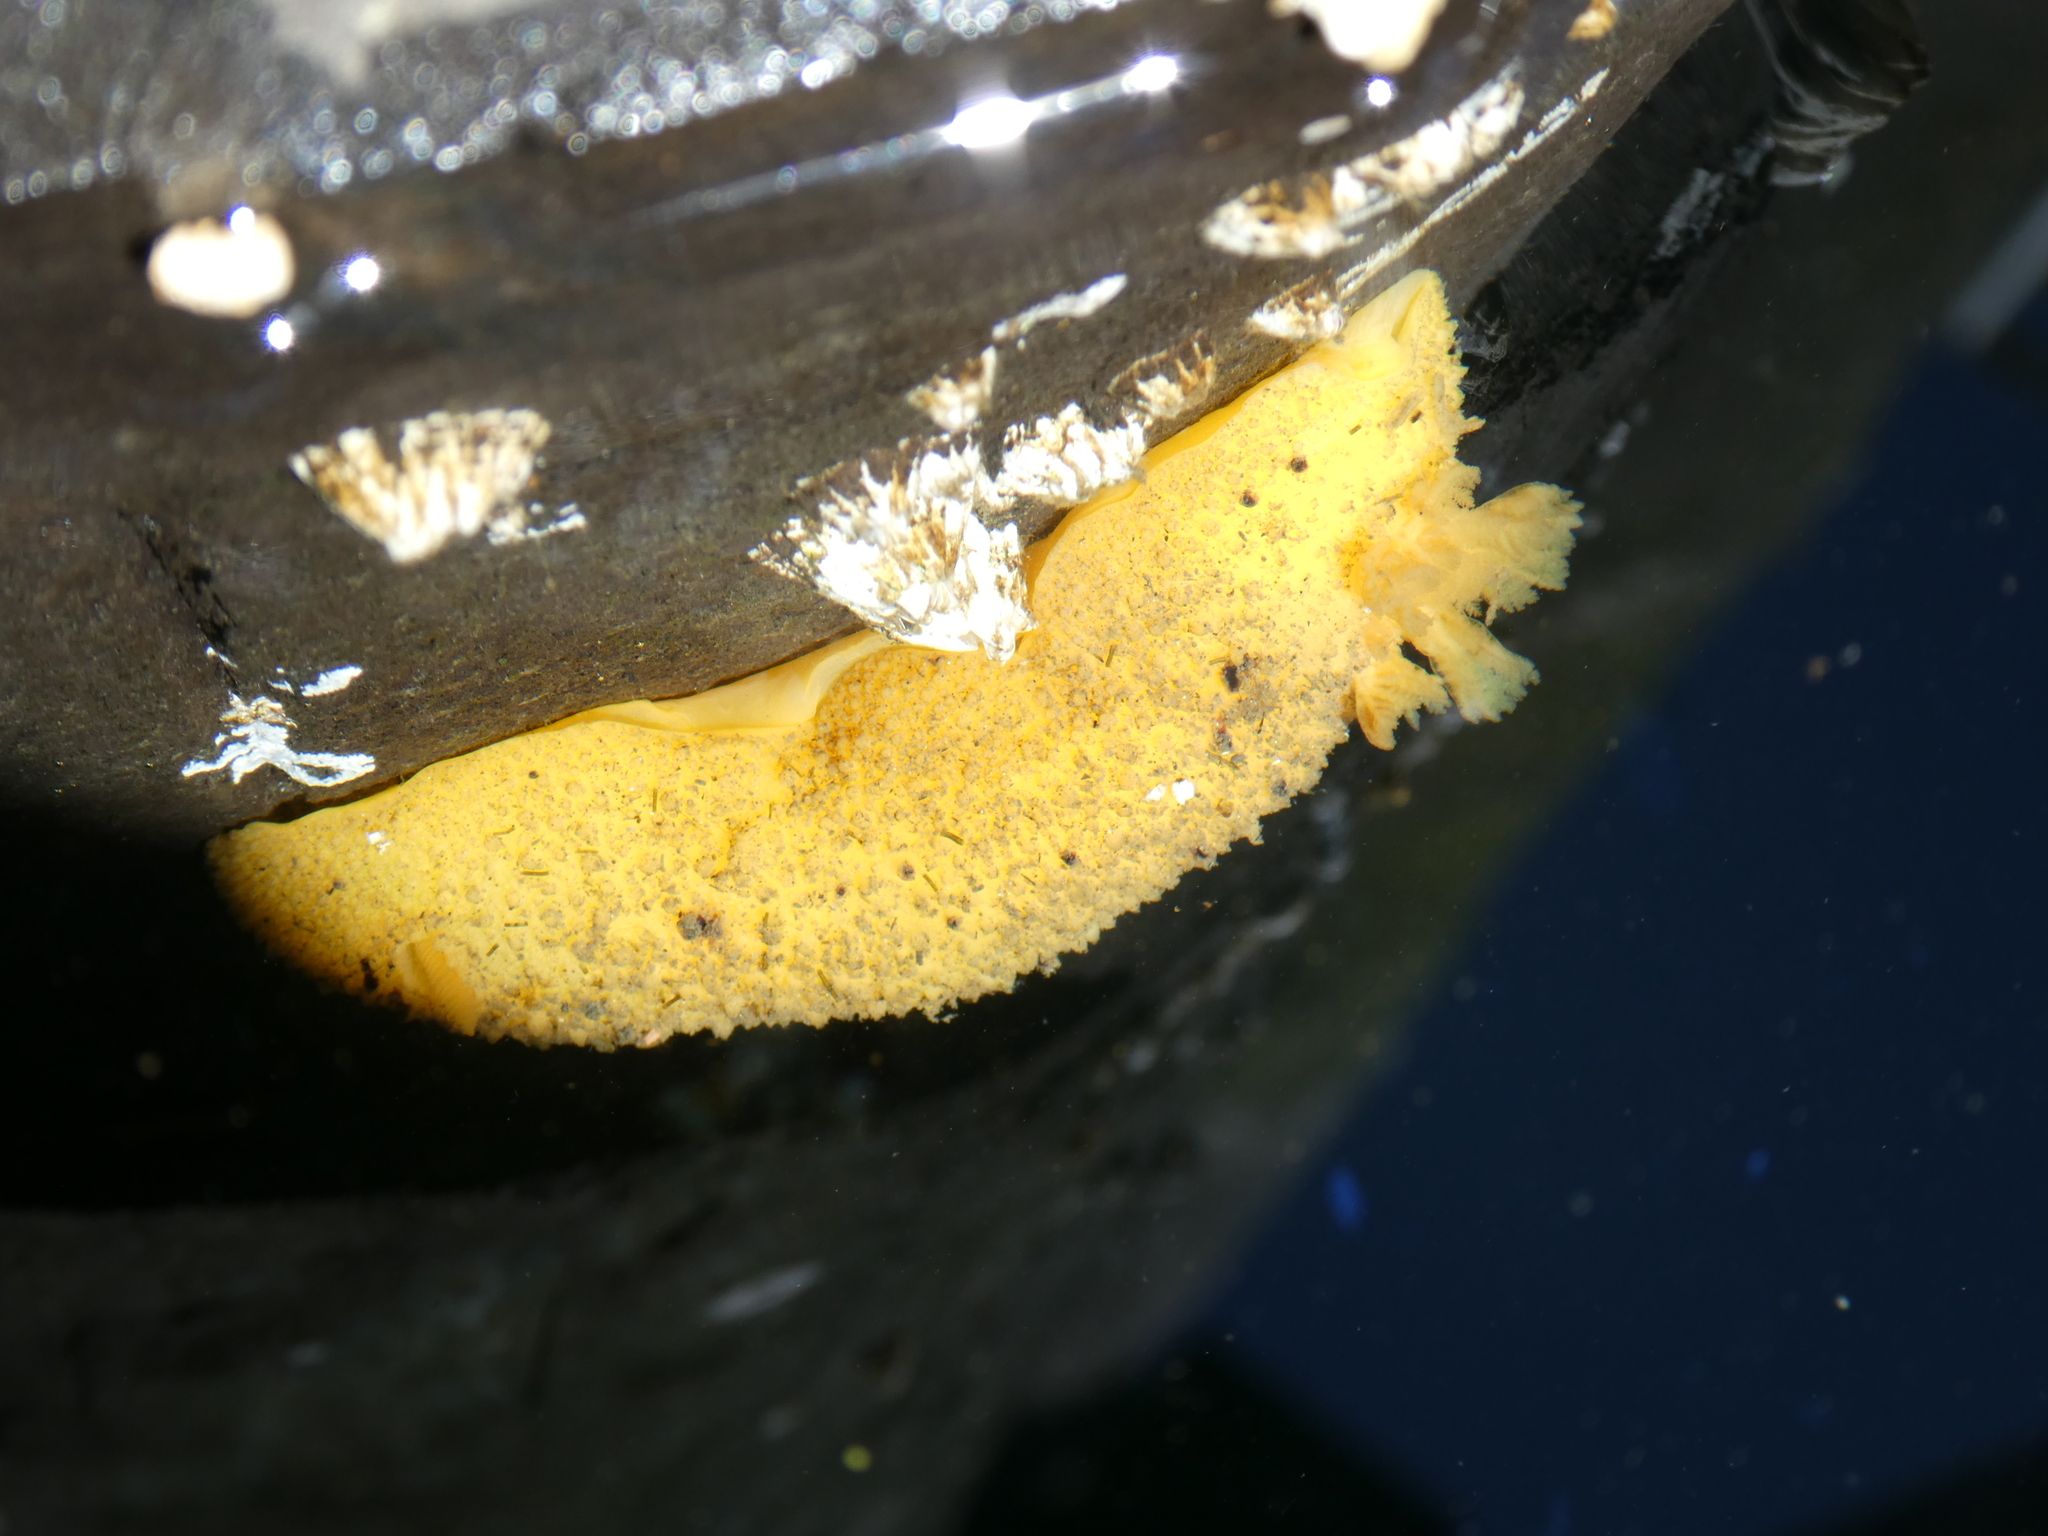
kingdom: Animalia
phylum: Mollusca
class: Gastropoda
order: Nudibranchia
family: Dorididae
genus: Doris
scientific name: Doris montereyensis
